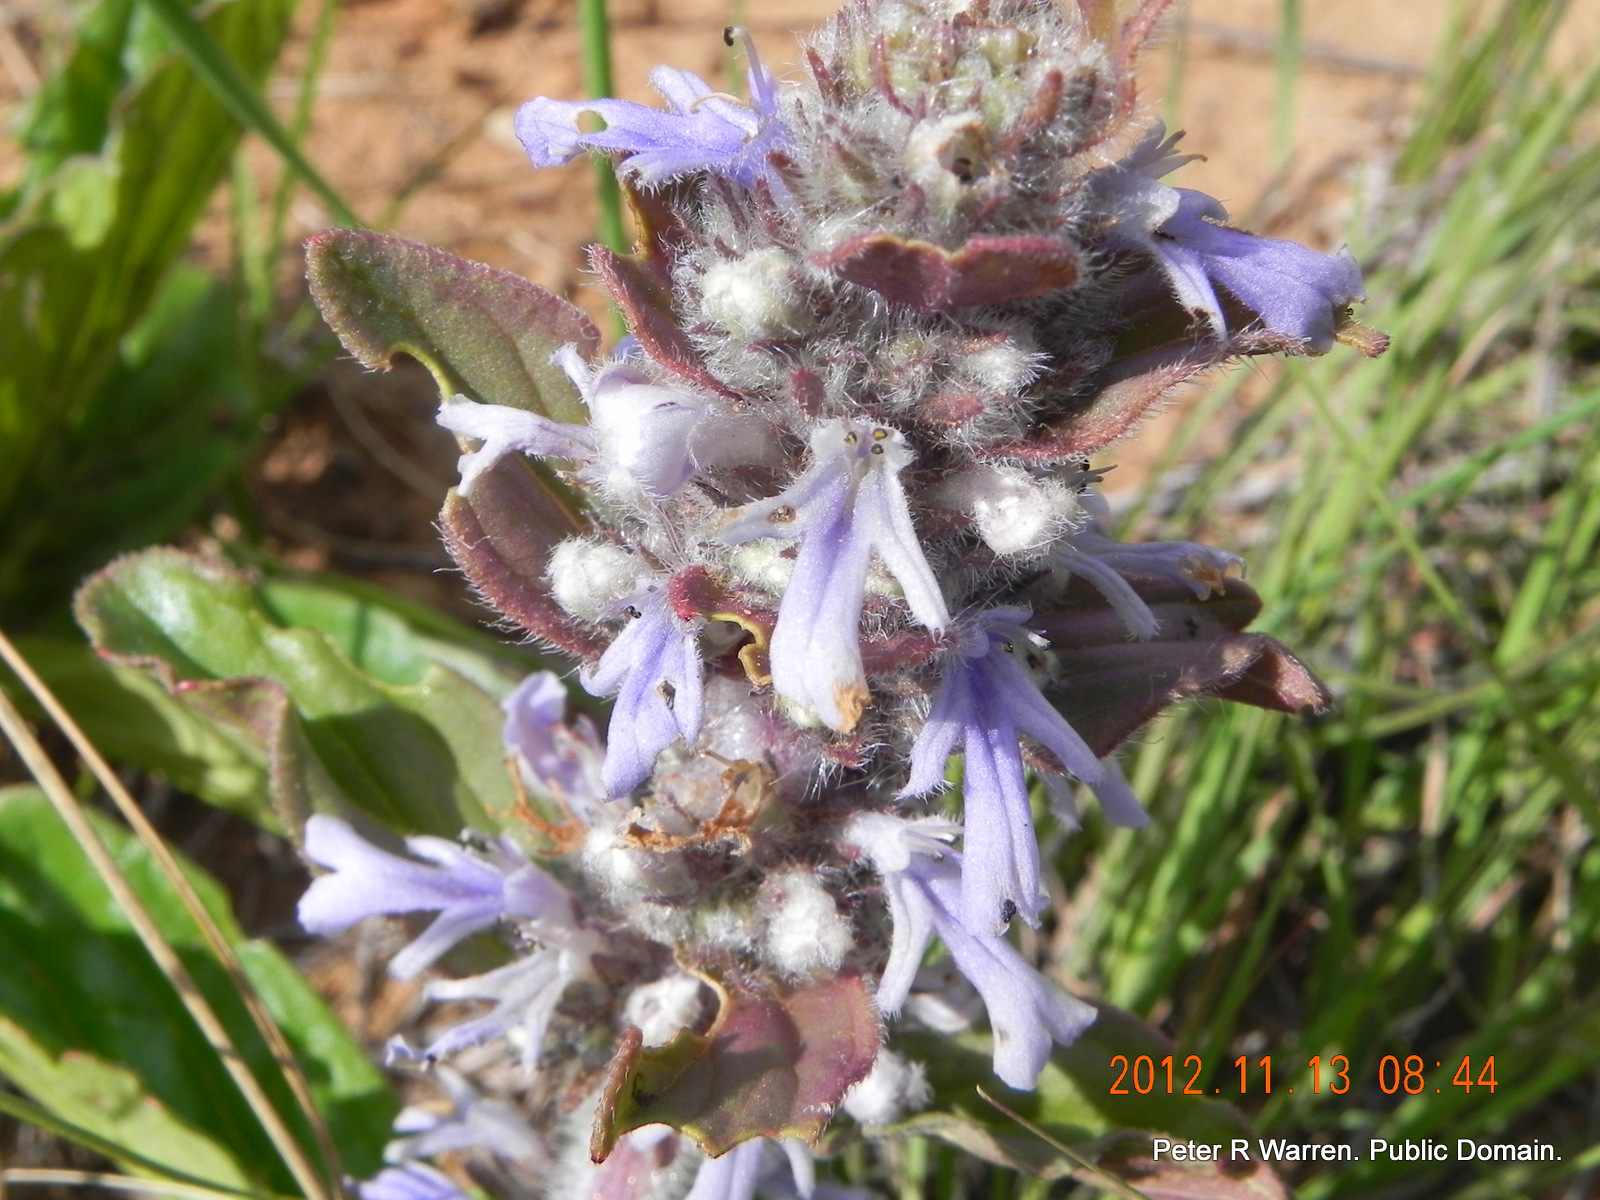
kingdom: Plantae
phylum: Tracheophyta
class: Magnoliopsida
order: Lamiales
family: Lamiaceae
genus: Ajuga
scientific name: Ajuga ophrydis
